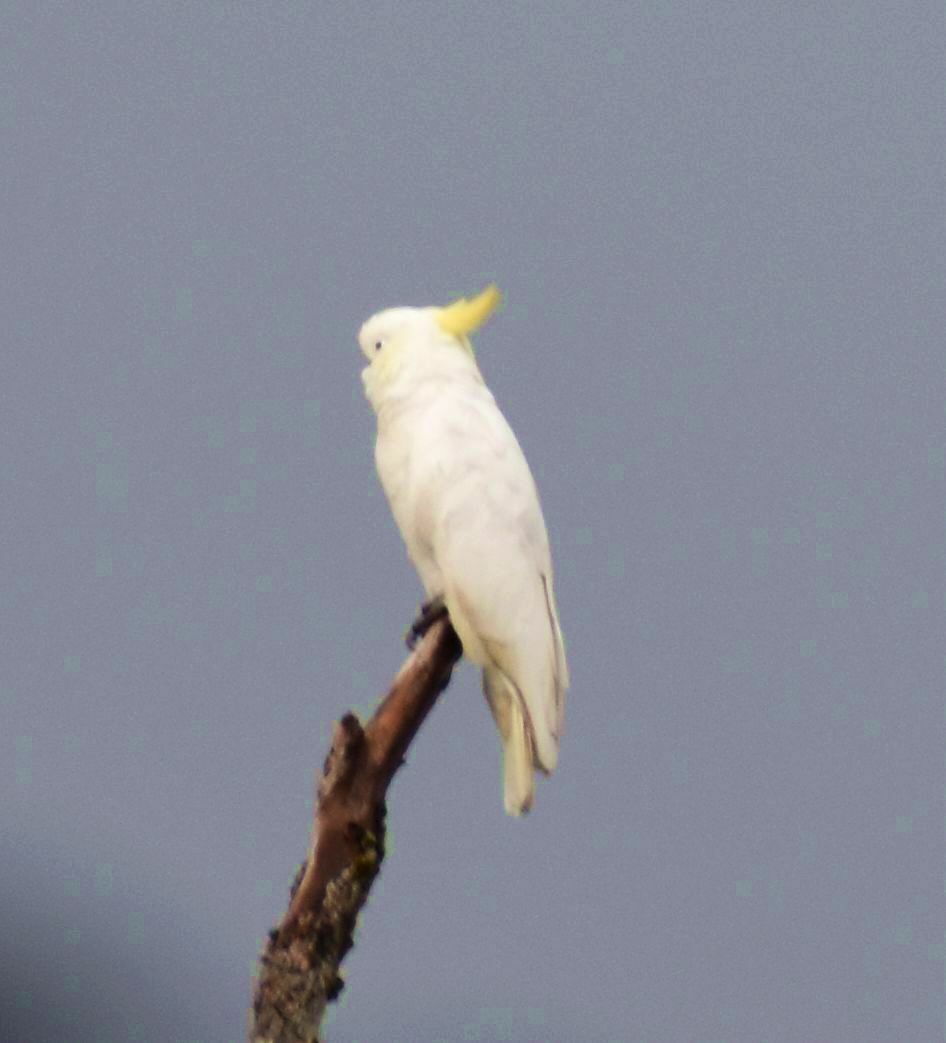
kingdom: Animalia
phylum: Chordata
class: Aves
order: Psittaciformes
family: Psittacidae
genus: Cacatua
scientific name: Cacatua galerita
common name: Sulphur-crested cockatoo
